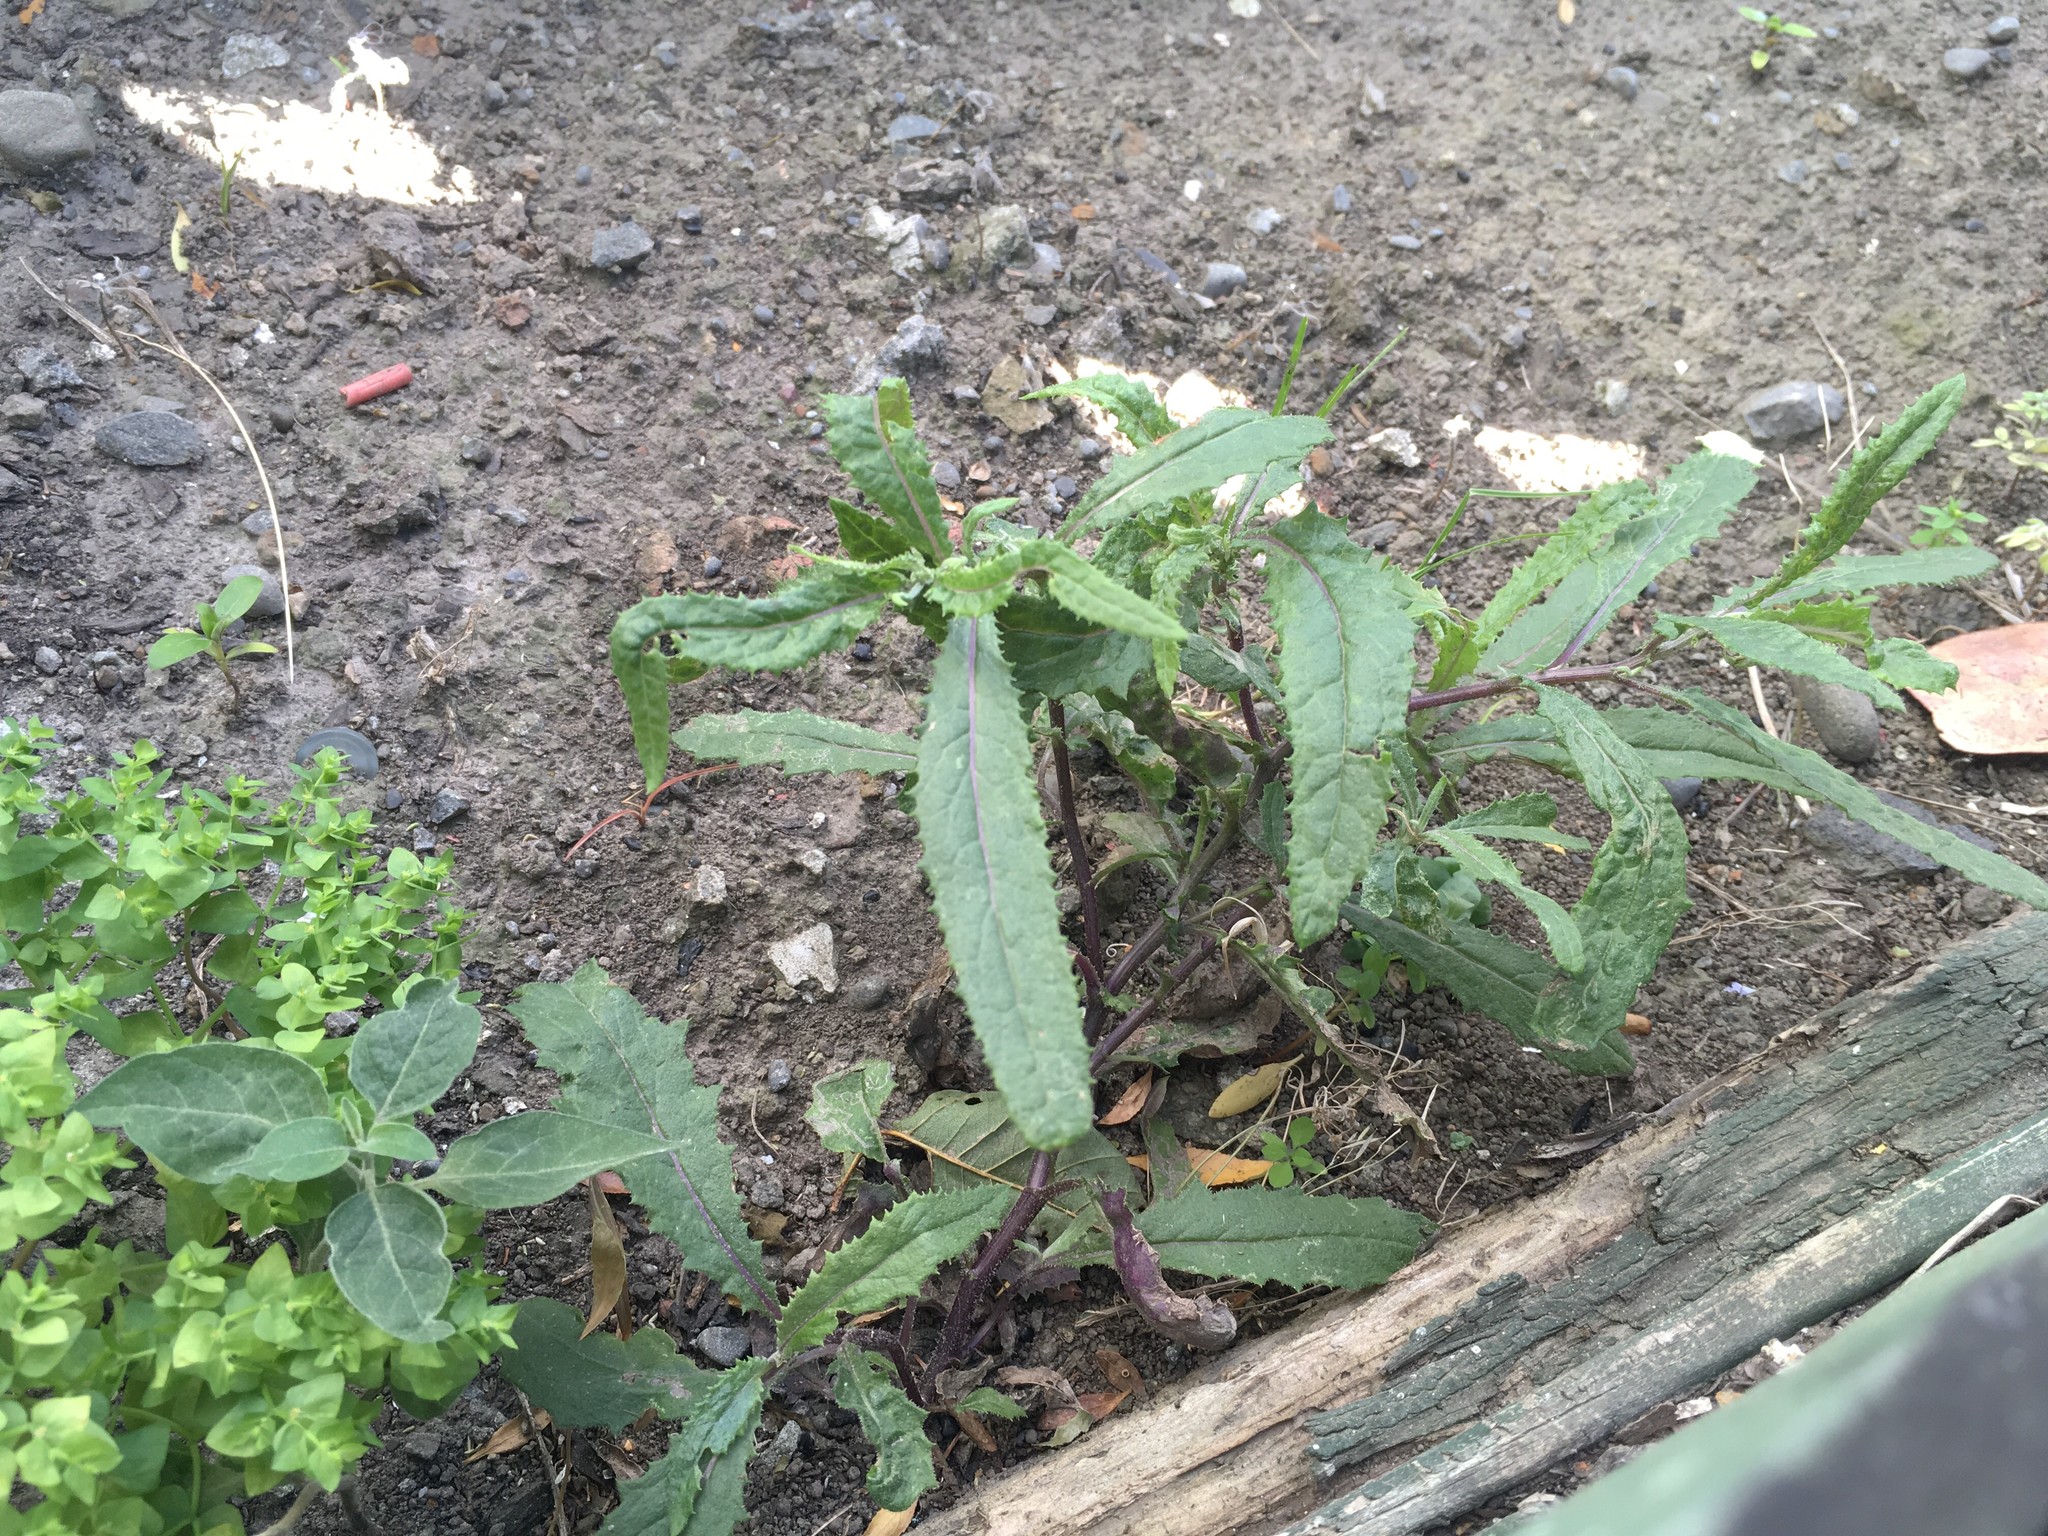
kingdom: Plantae
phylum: Tracheophyta
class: Magnoliopsida
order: Asterales
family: Asteraceae
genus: Senecio
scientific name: Senecio minimus
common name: Toothed fireweed
